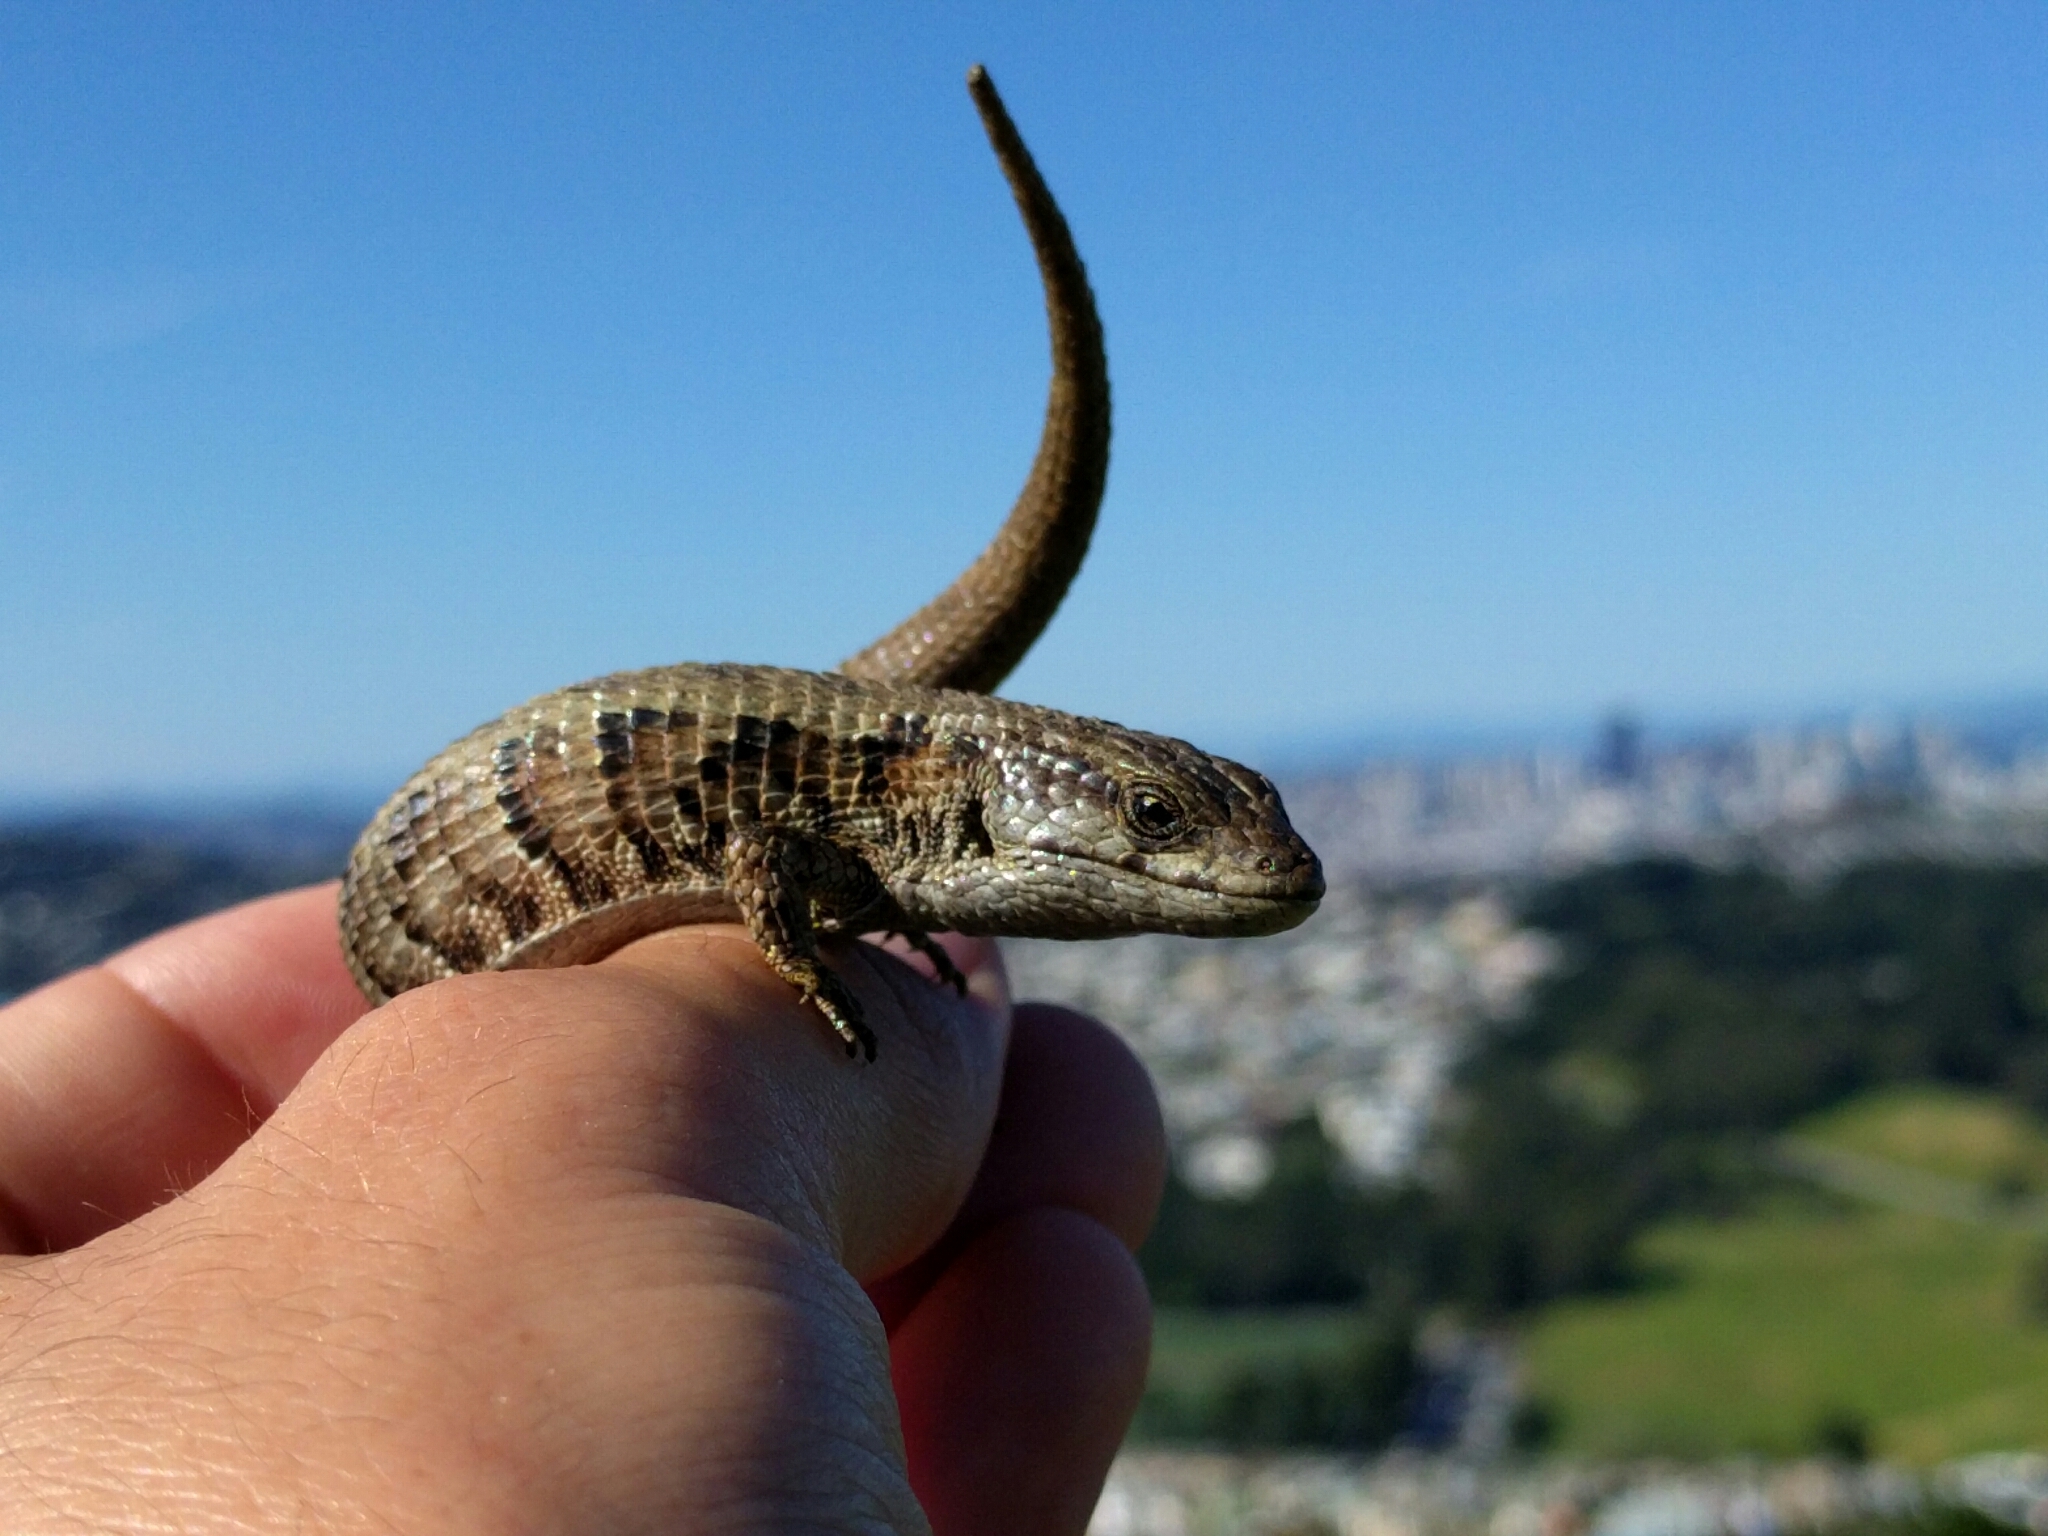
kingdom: Animalia
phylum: Chordata
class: Squamata
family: Anguidae
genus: Elgaria
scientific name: Elgaria coerulea
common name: Northern alligator lizard
